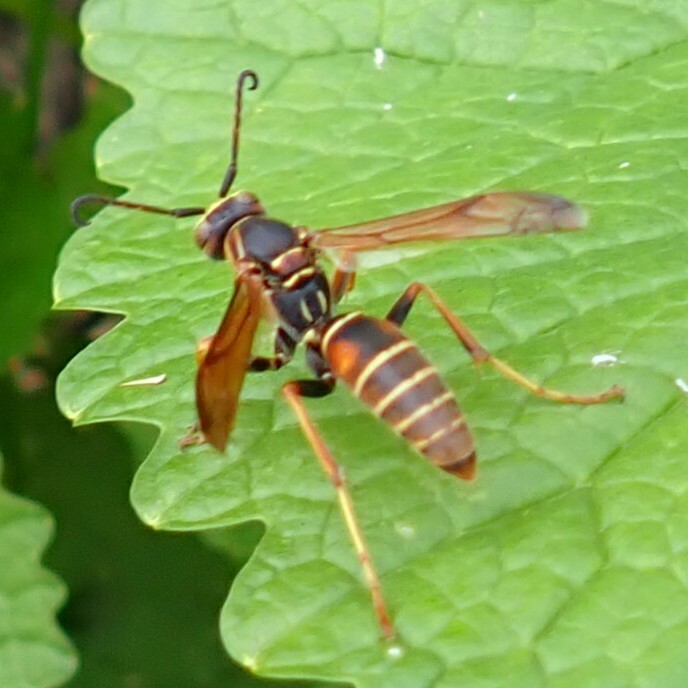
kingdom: Animalia
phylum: Arthropoda
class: Insecta
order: Hymenoptera
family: Eumenidae
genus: Polistes
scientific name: Polistes fuscatus
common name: Dark paper wasp
